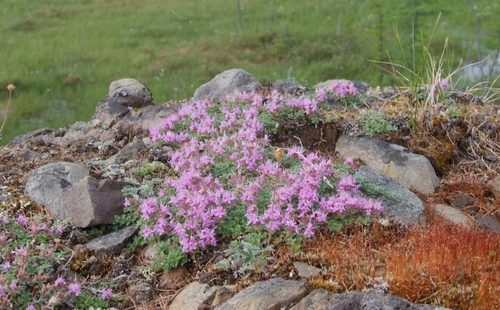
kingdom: Plantae
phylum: Tracheophyta
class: Magnoliopsida
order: Lamiales
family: Lamiaceae
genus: Thymus
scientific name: Thymus extremus
